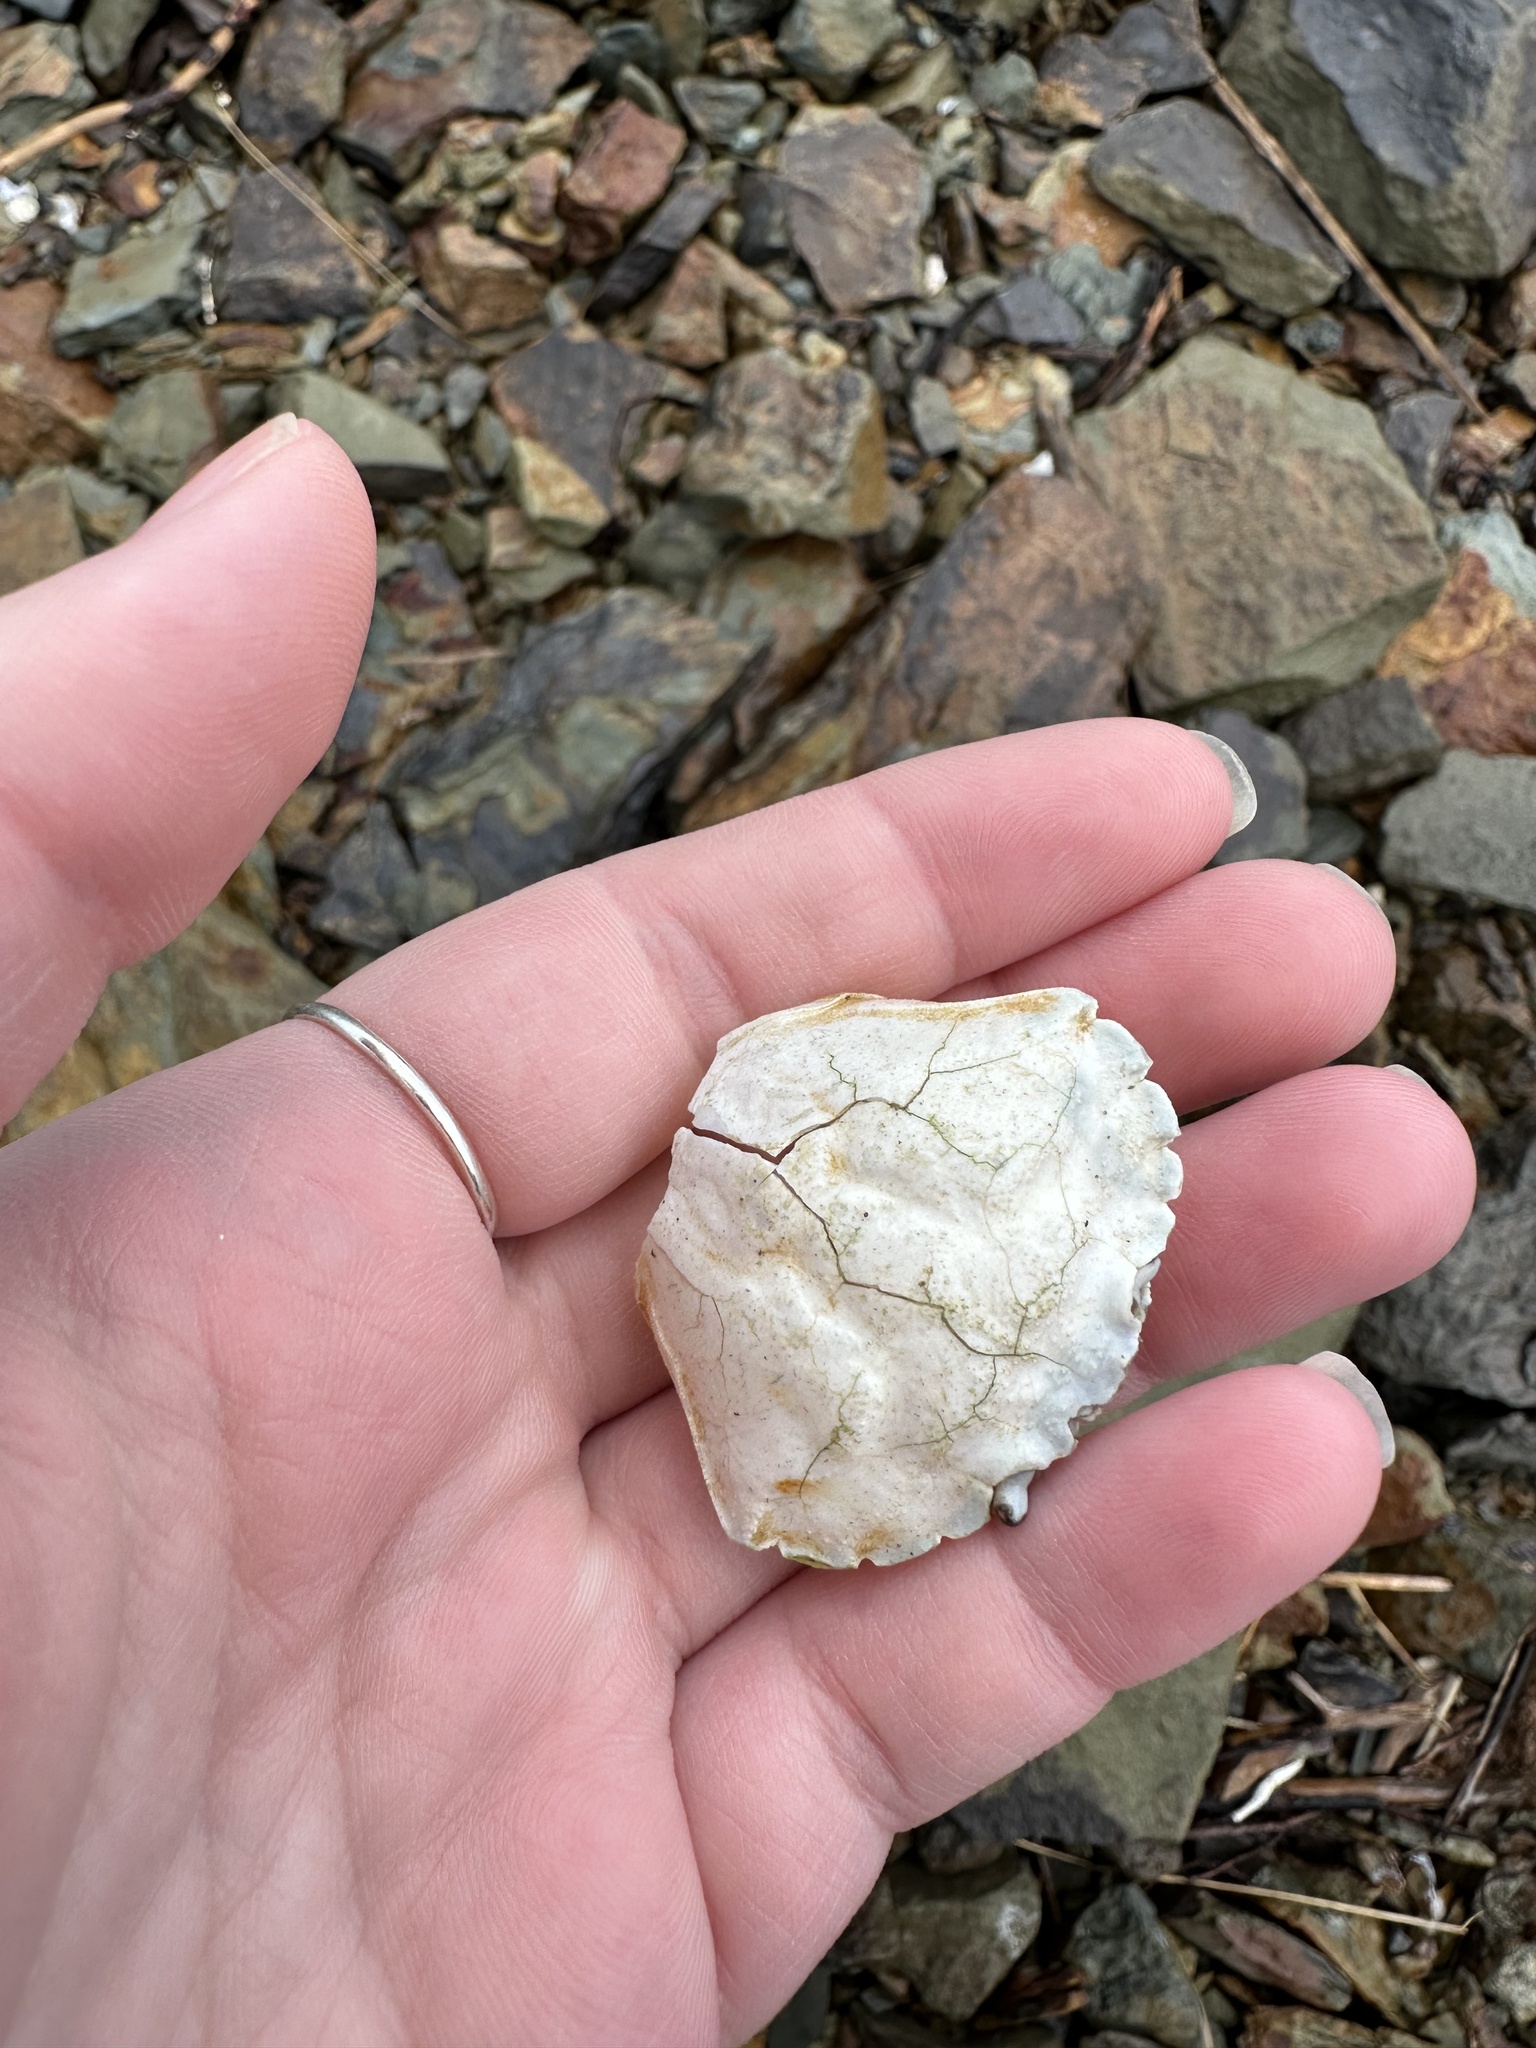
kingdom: Animalia
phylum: Arthropoda
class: Malacostraca
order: Decapoda
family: Carcinidae
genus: Carcinus
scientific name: Carcinus maenas
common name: European green crab
